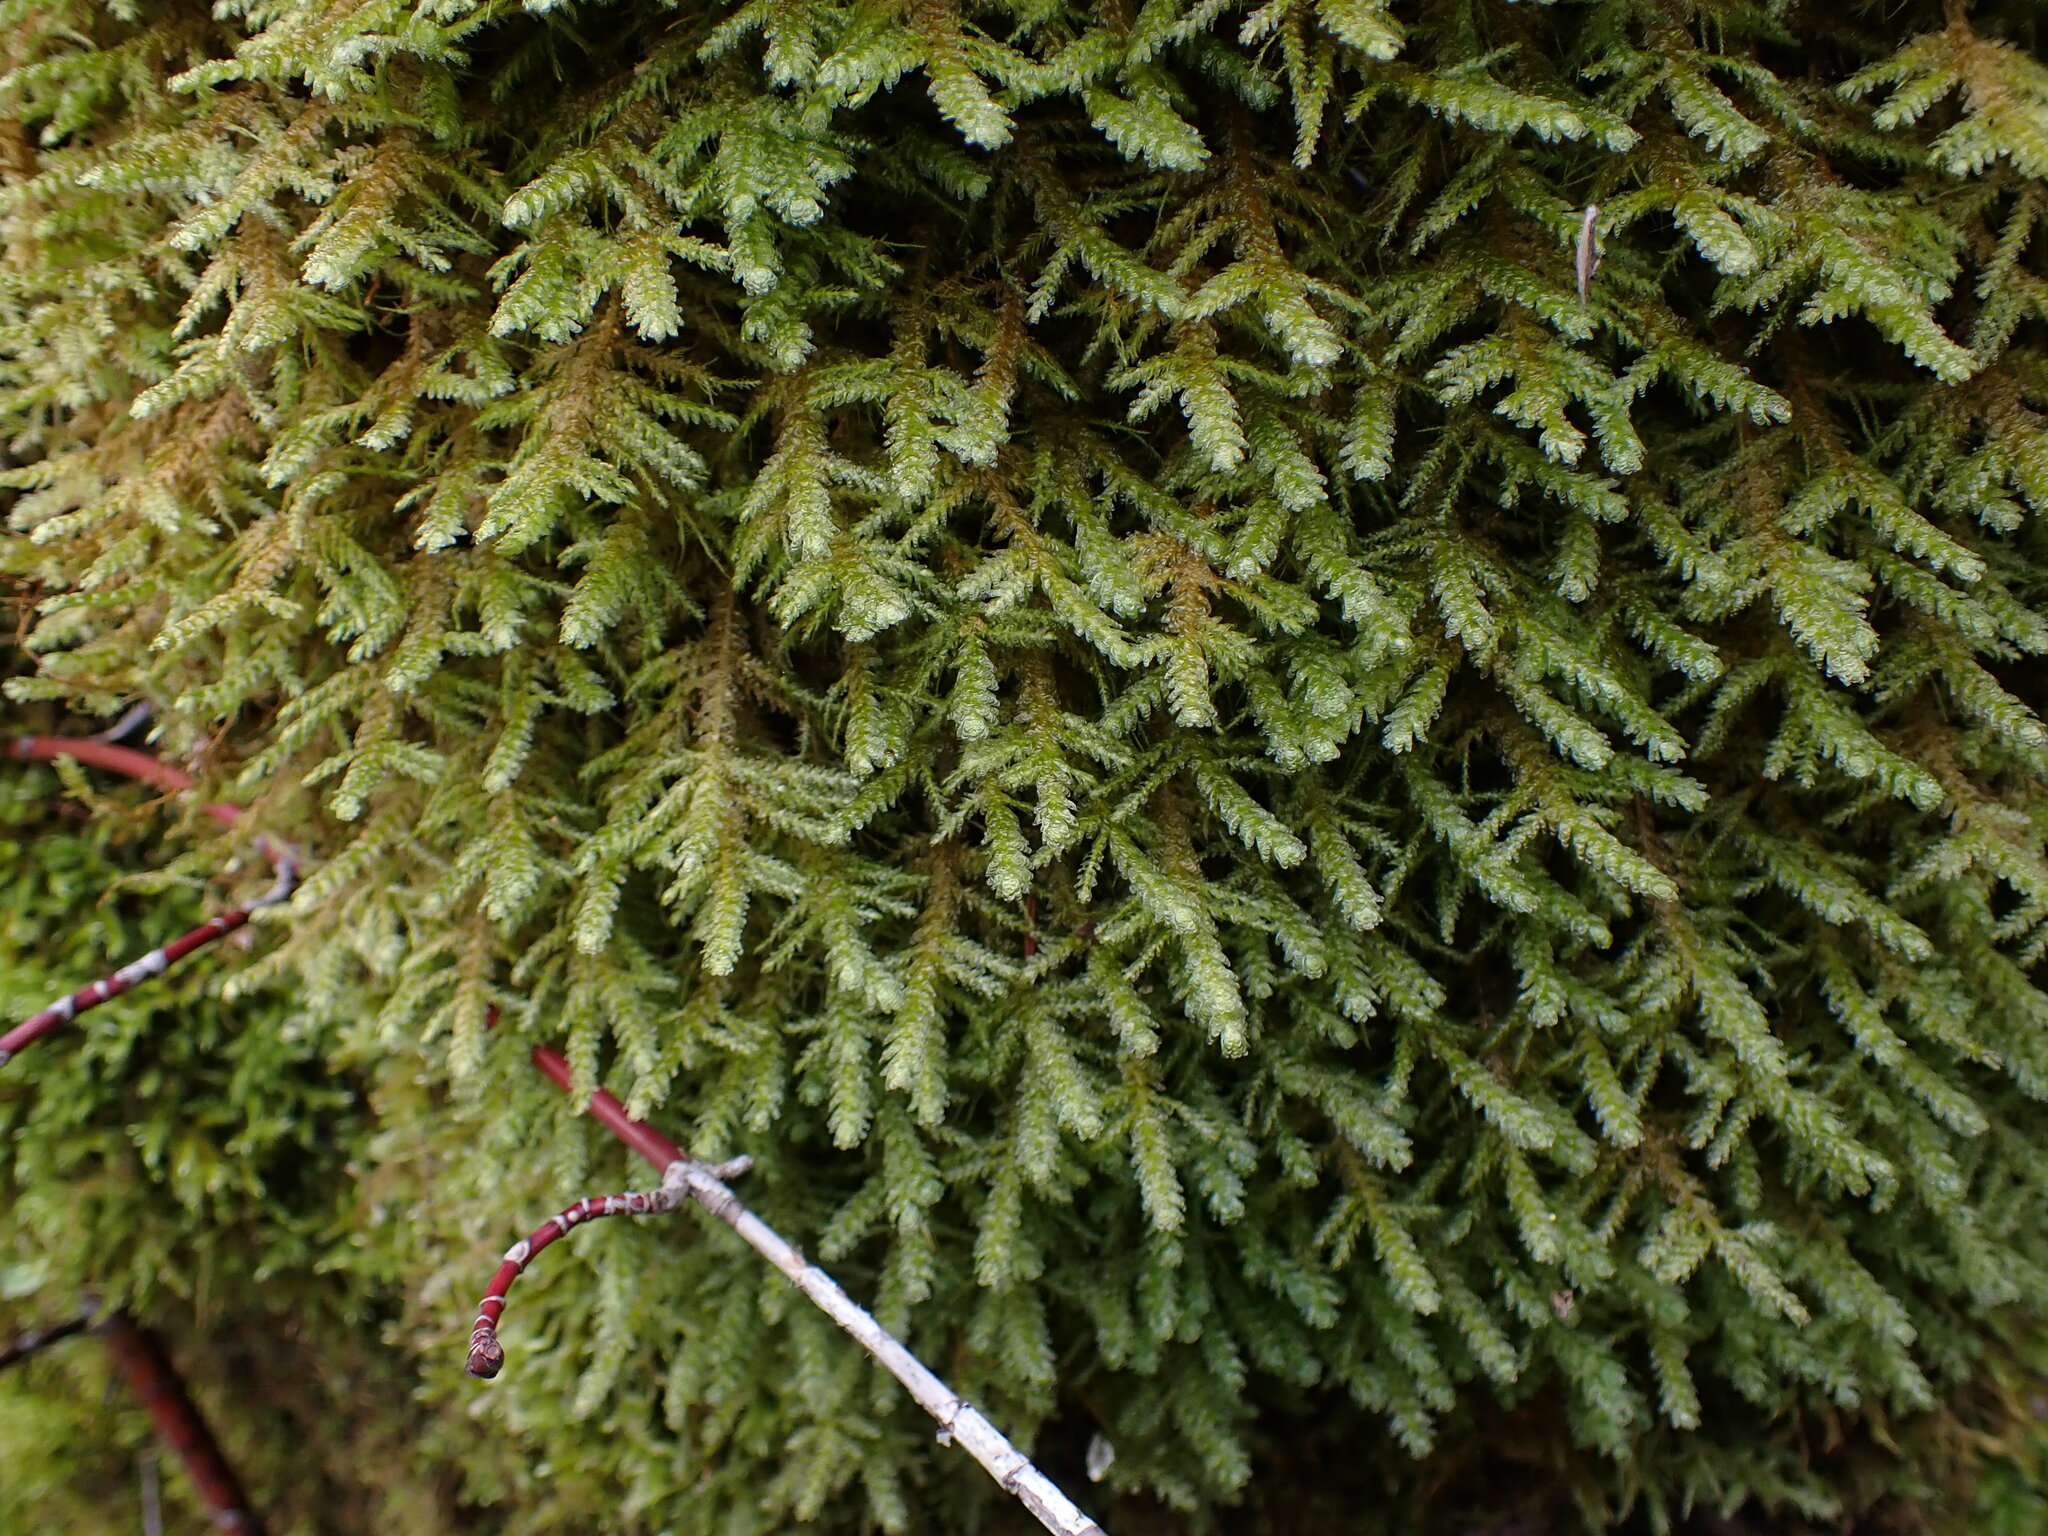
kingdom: Plantae
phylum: Bryophyta
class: Bryopsida
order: Hypnales
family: Neckeraceae
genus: Metaneckera
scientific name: Metaneckera menziesii
